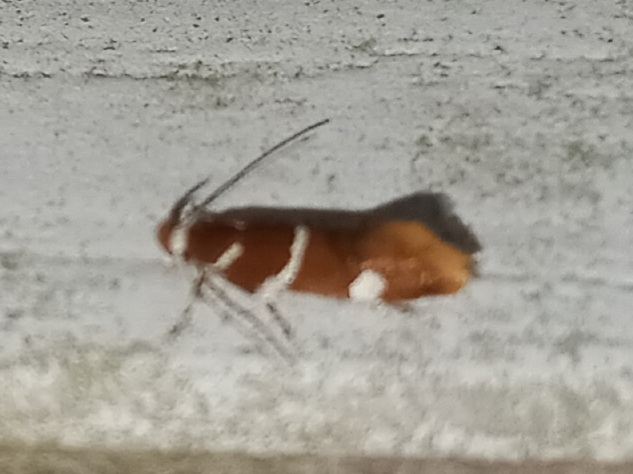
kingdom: Animalia
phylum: Arthropoda
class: Insecta
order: Lepidoptera
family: Oecophoridae
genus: Promalactis
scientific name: Promalactis suzukiella
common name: Moth
